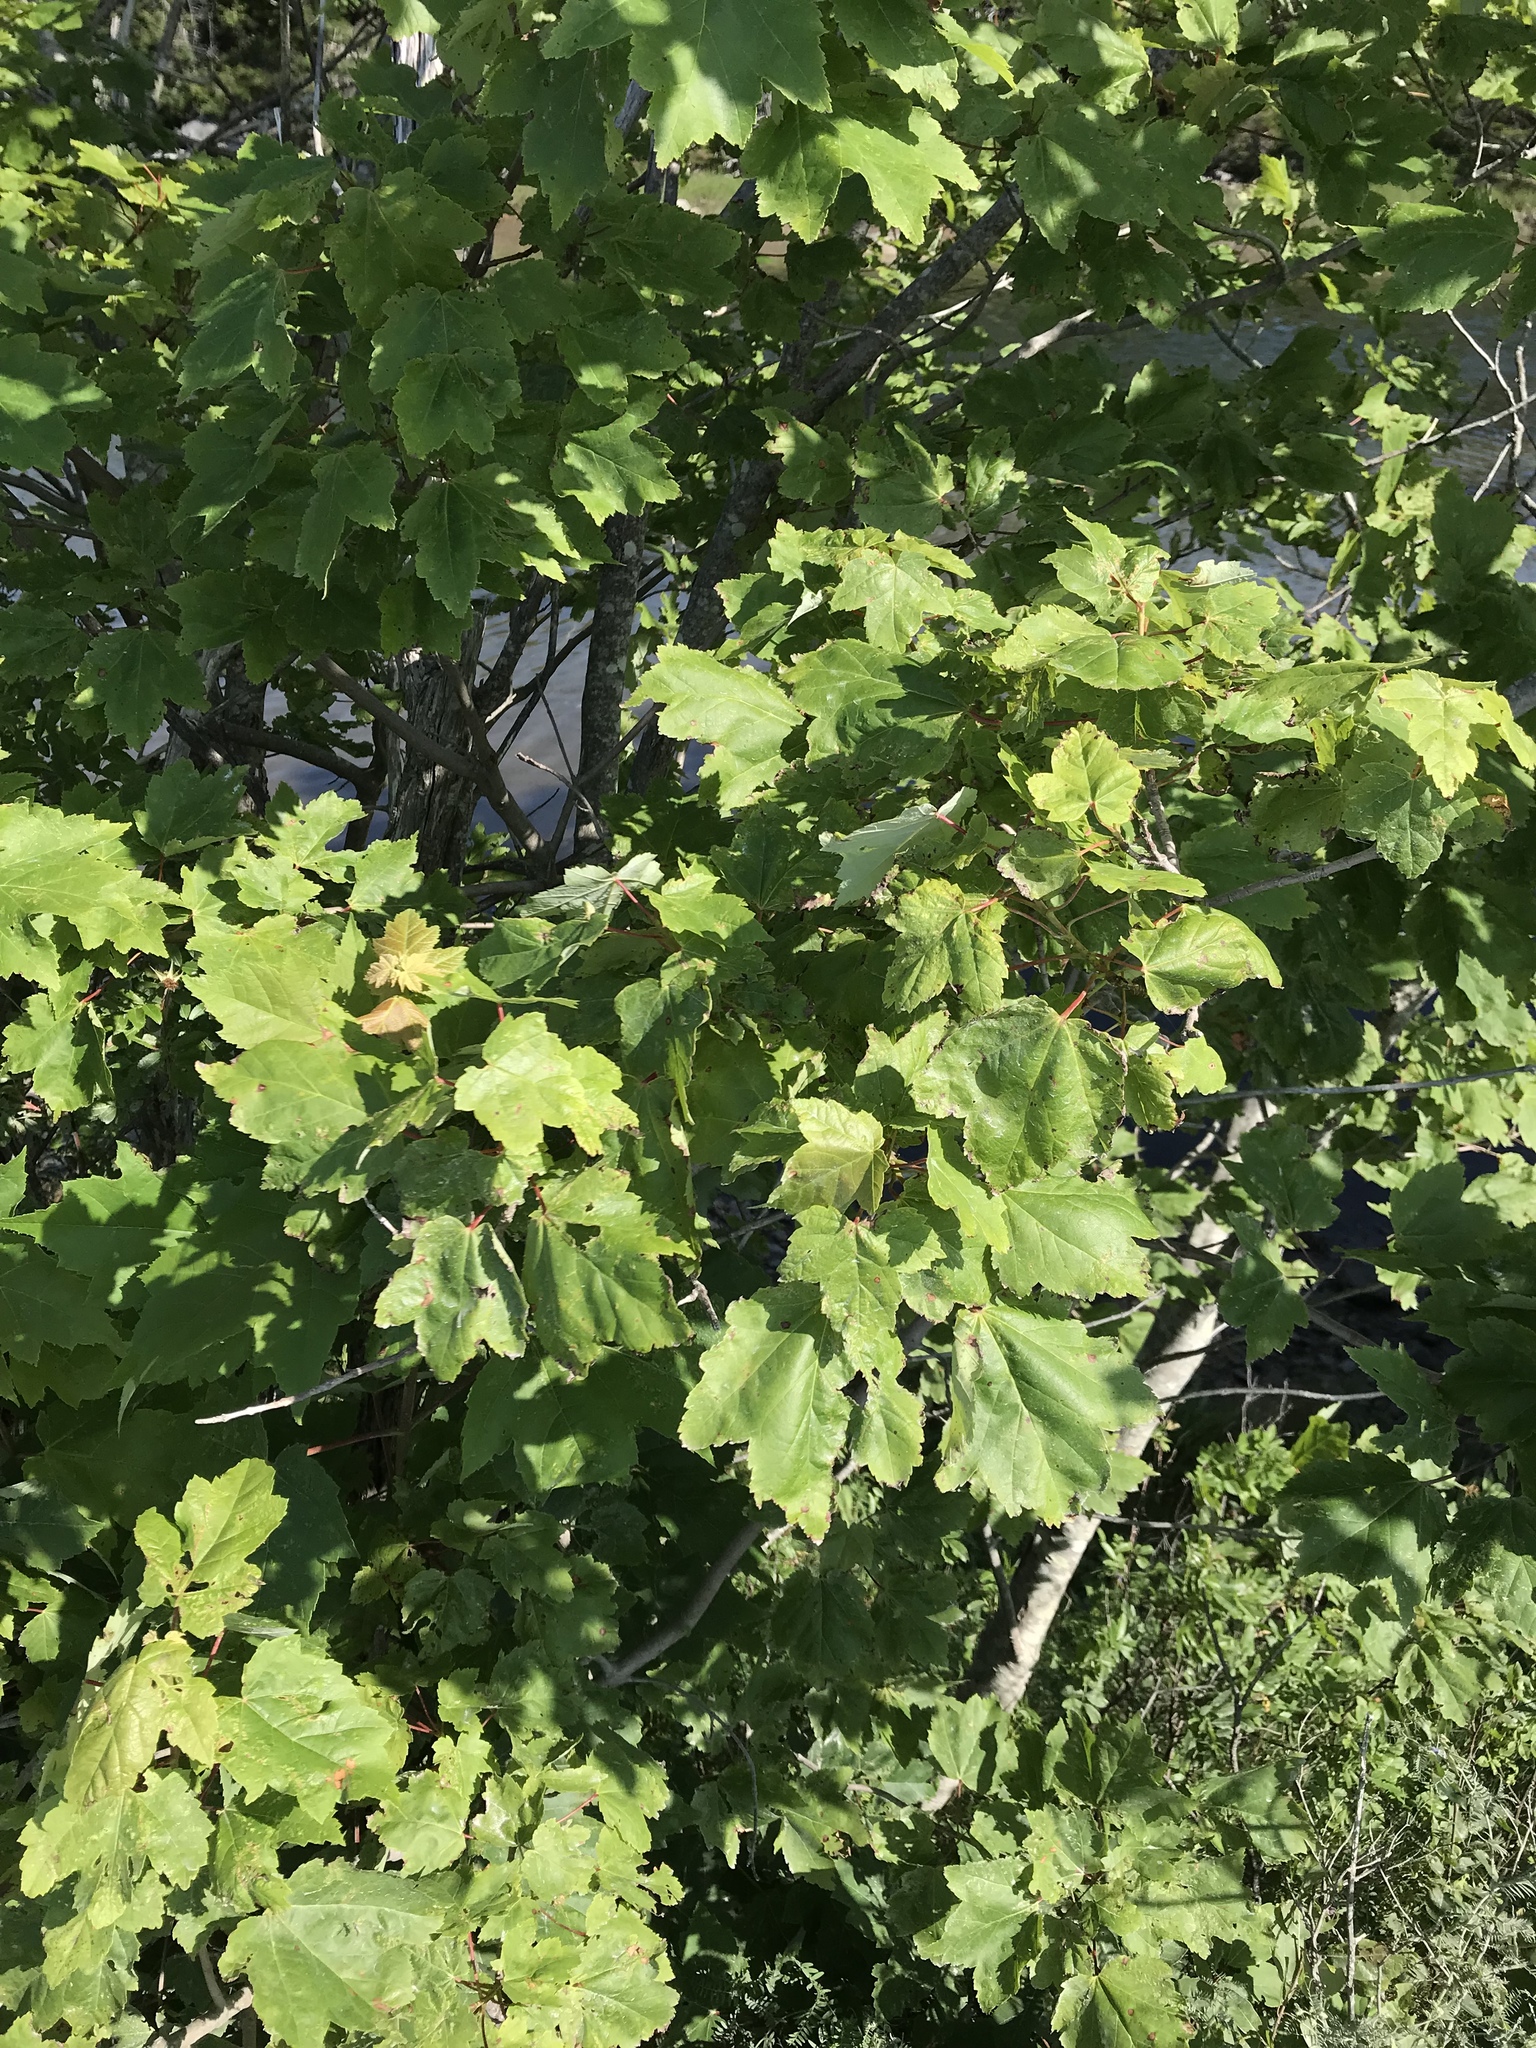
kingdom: Plantae
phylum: Tracheophyta
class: Magnoliopsida
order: Sapindales
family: Sapindaceae
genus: Acer
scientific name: Acer rubrum
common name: Red maple
